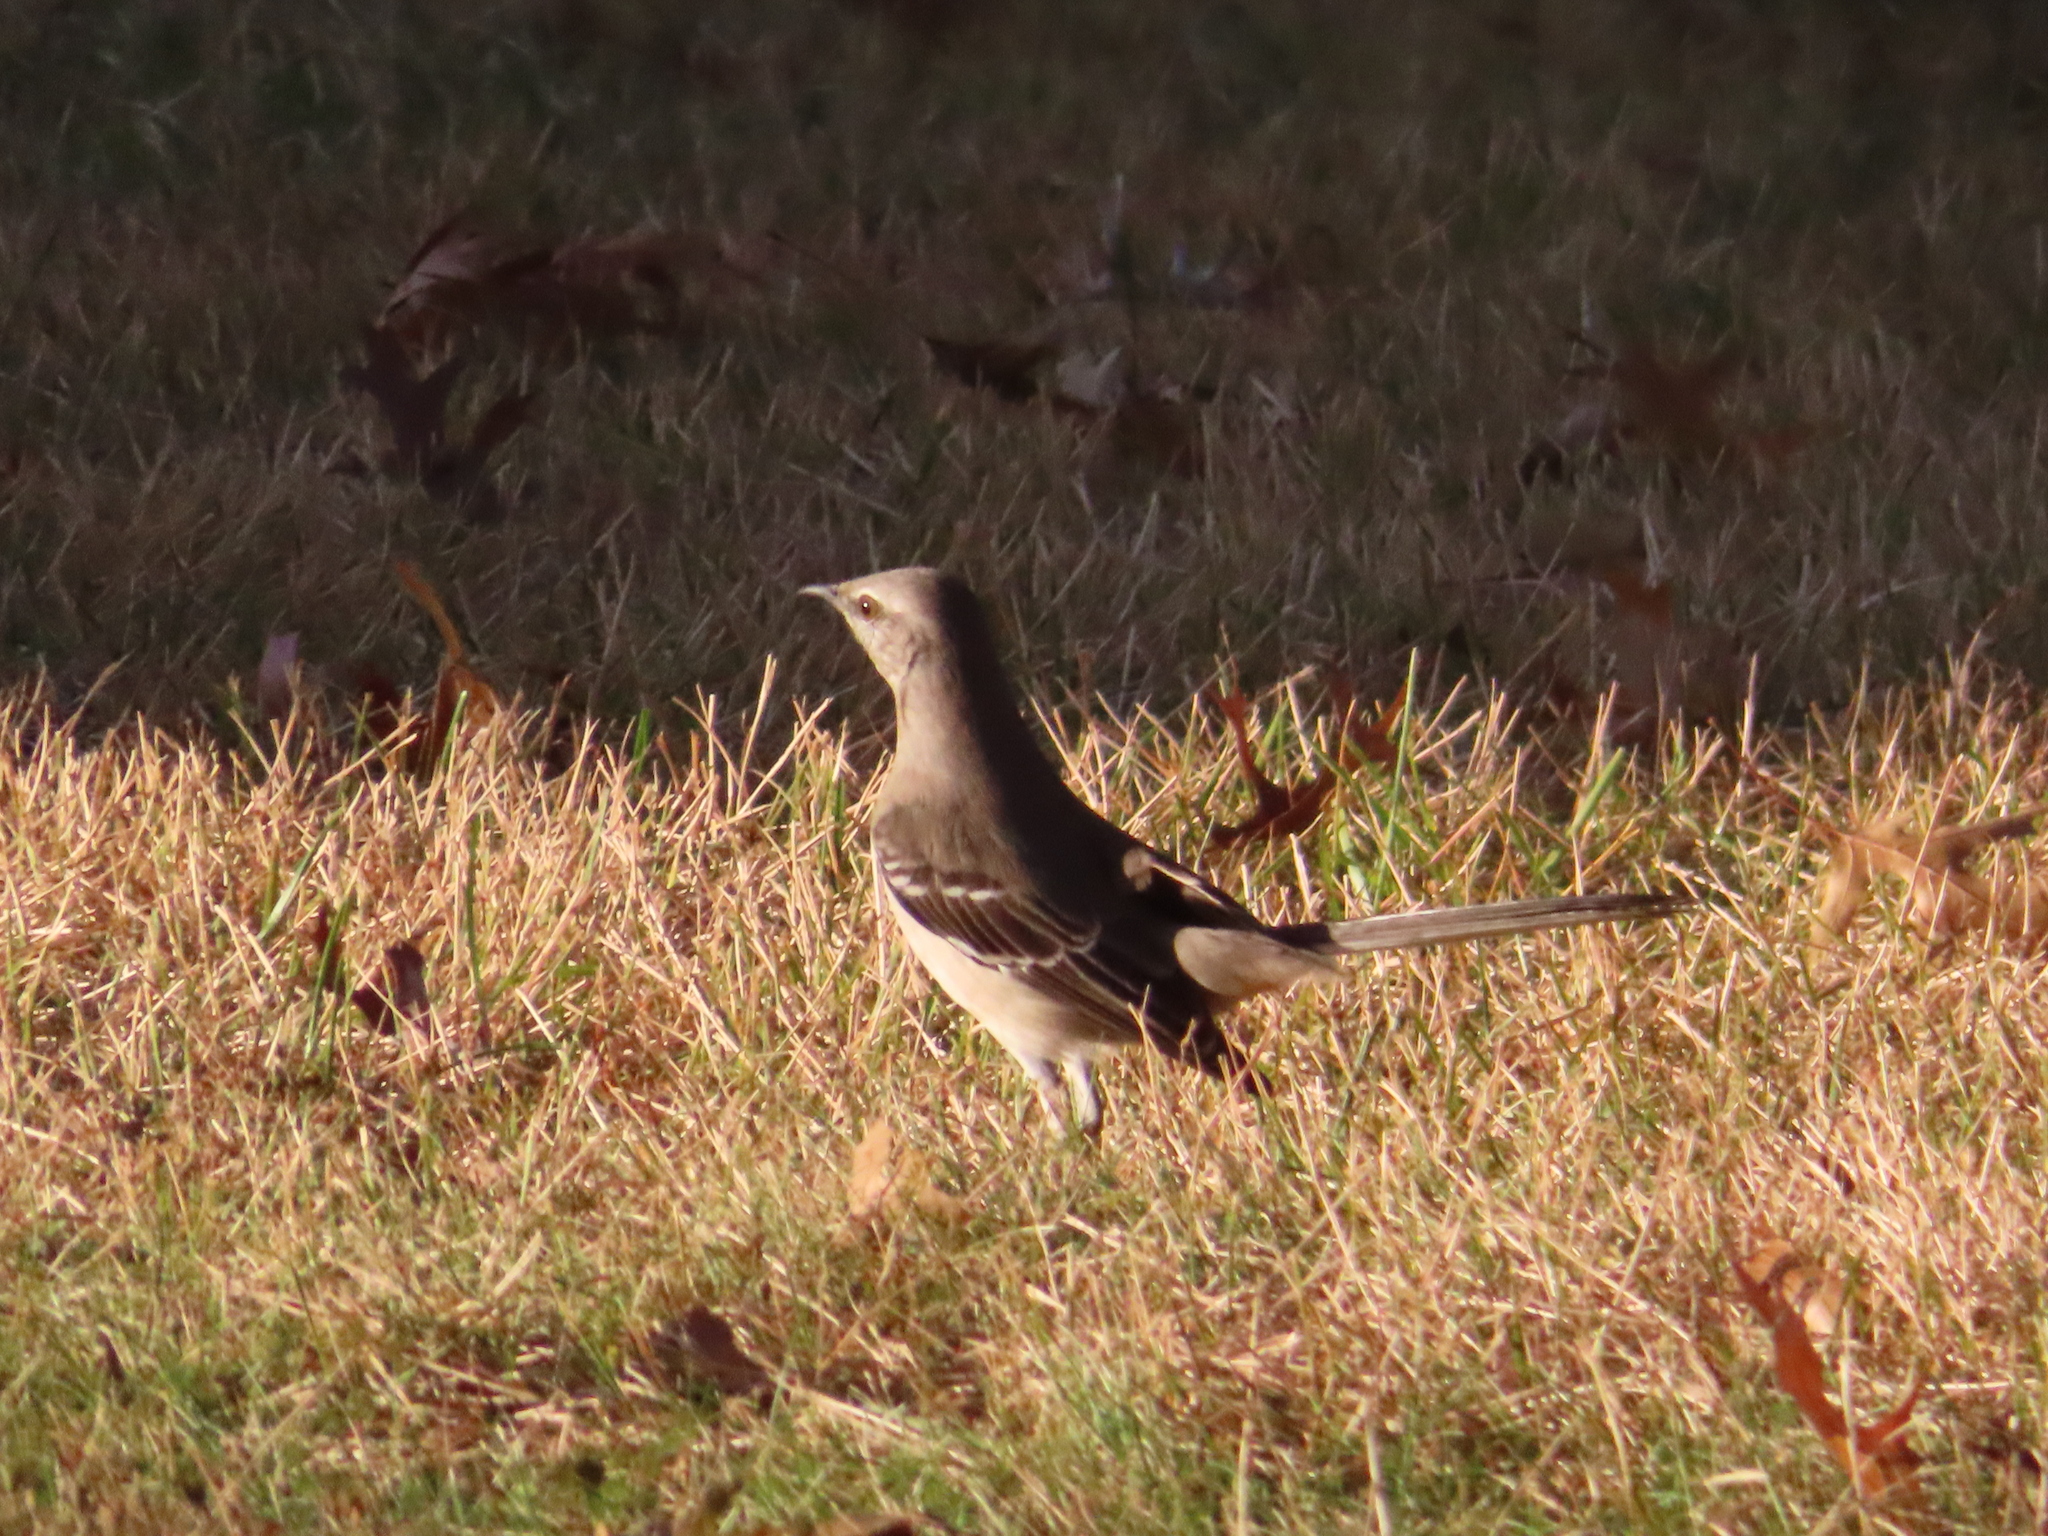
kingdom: Animalia
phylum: Chordata
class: Aves
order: Passeriformes
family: Mimidae
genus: Mimus
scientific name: Mimus polyglottos
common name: Northern mockingbird
